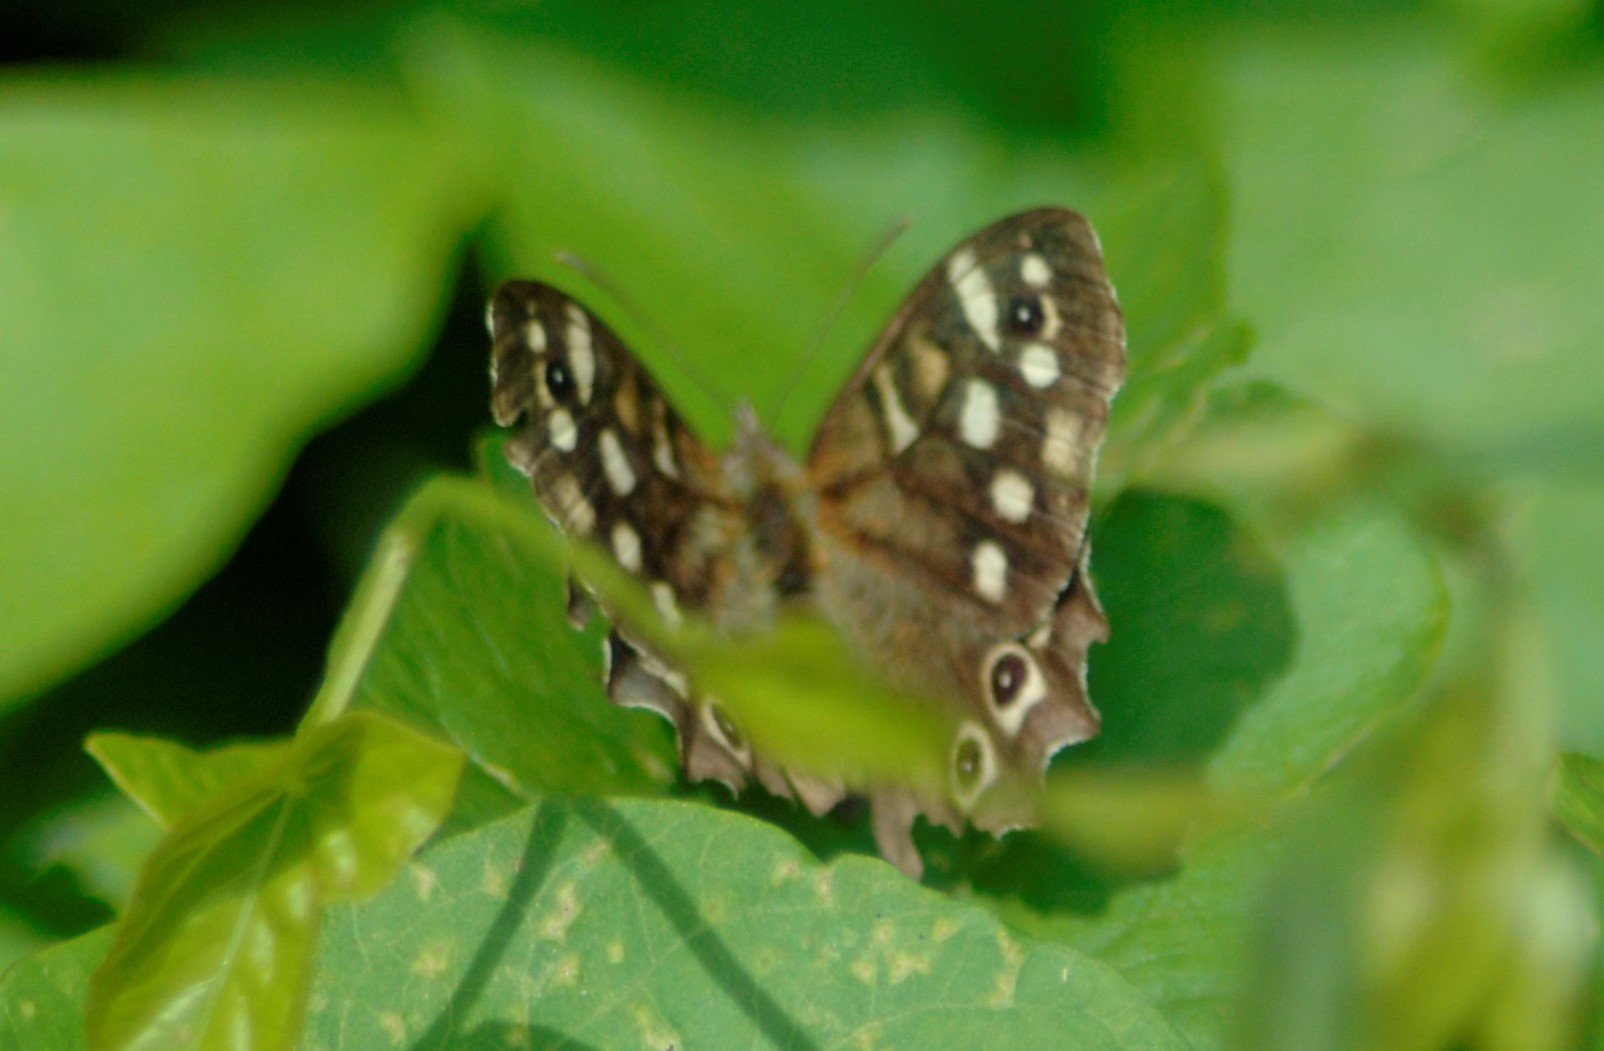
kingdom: Animalia
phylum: Arthropoda
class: Insecta
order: Lepidoptera
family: Nymphalidae
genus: Pararge
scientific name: Pararge aegeria
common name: Speckled wood
